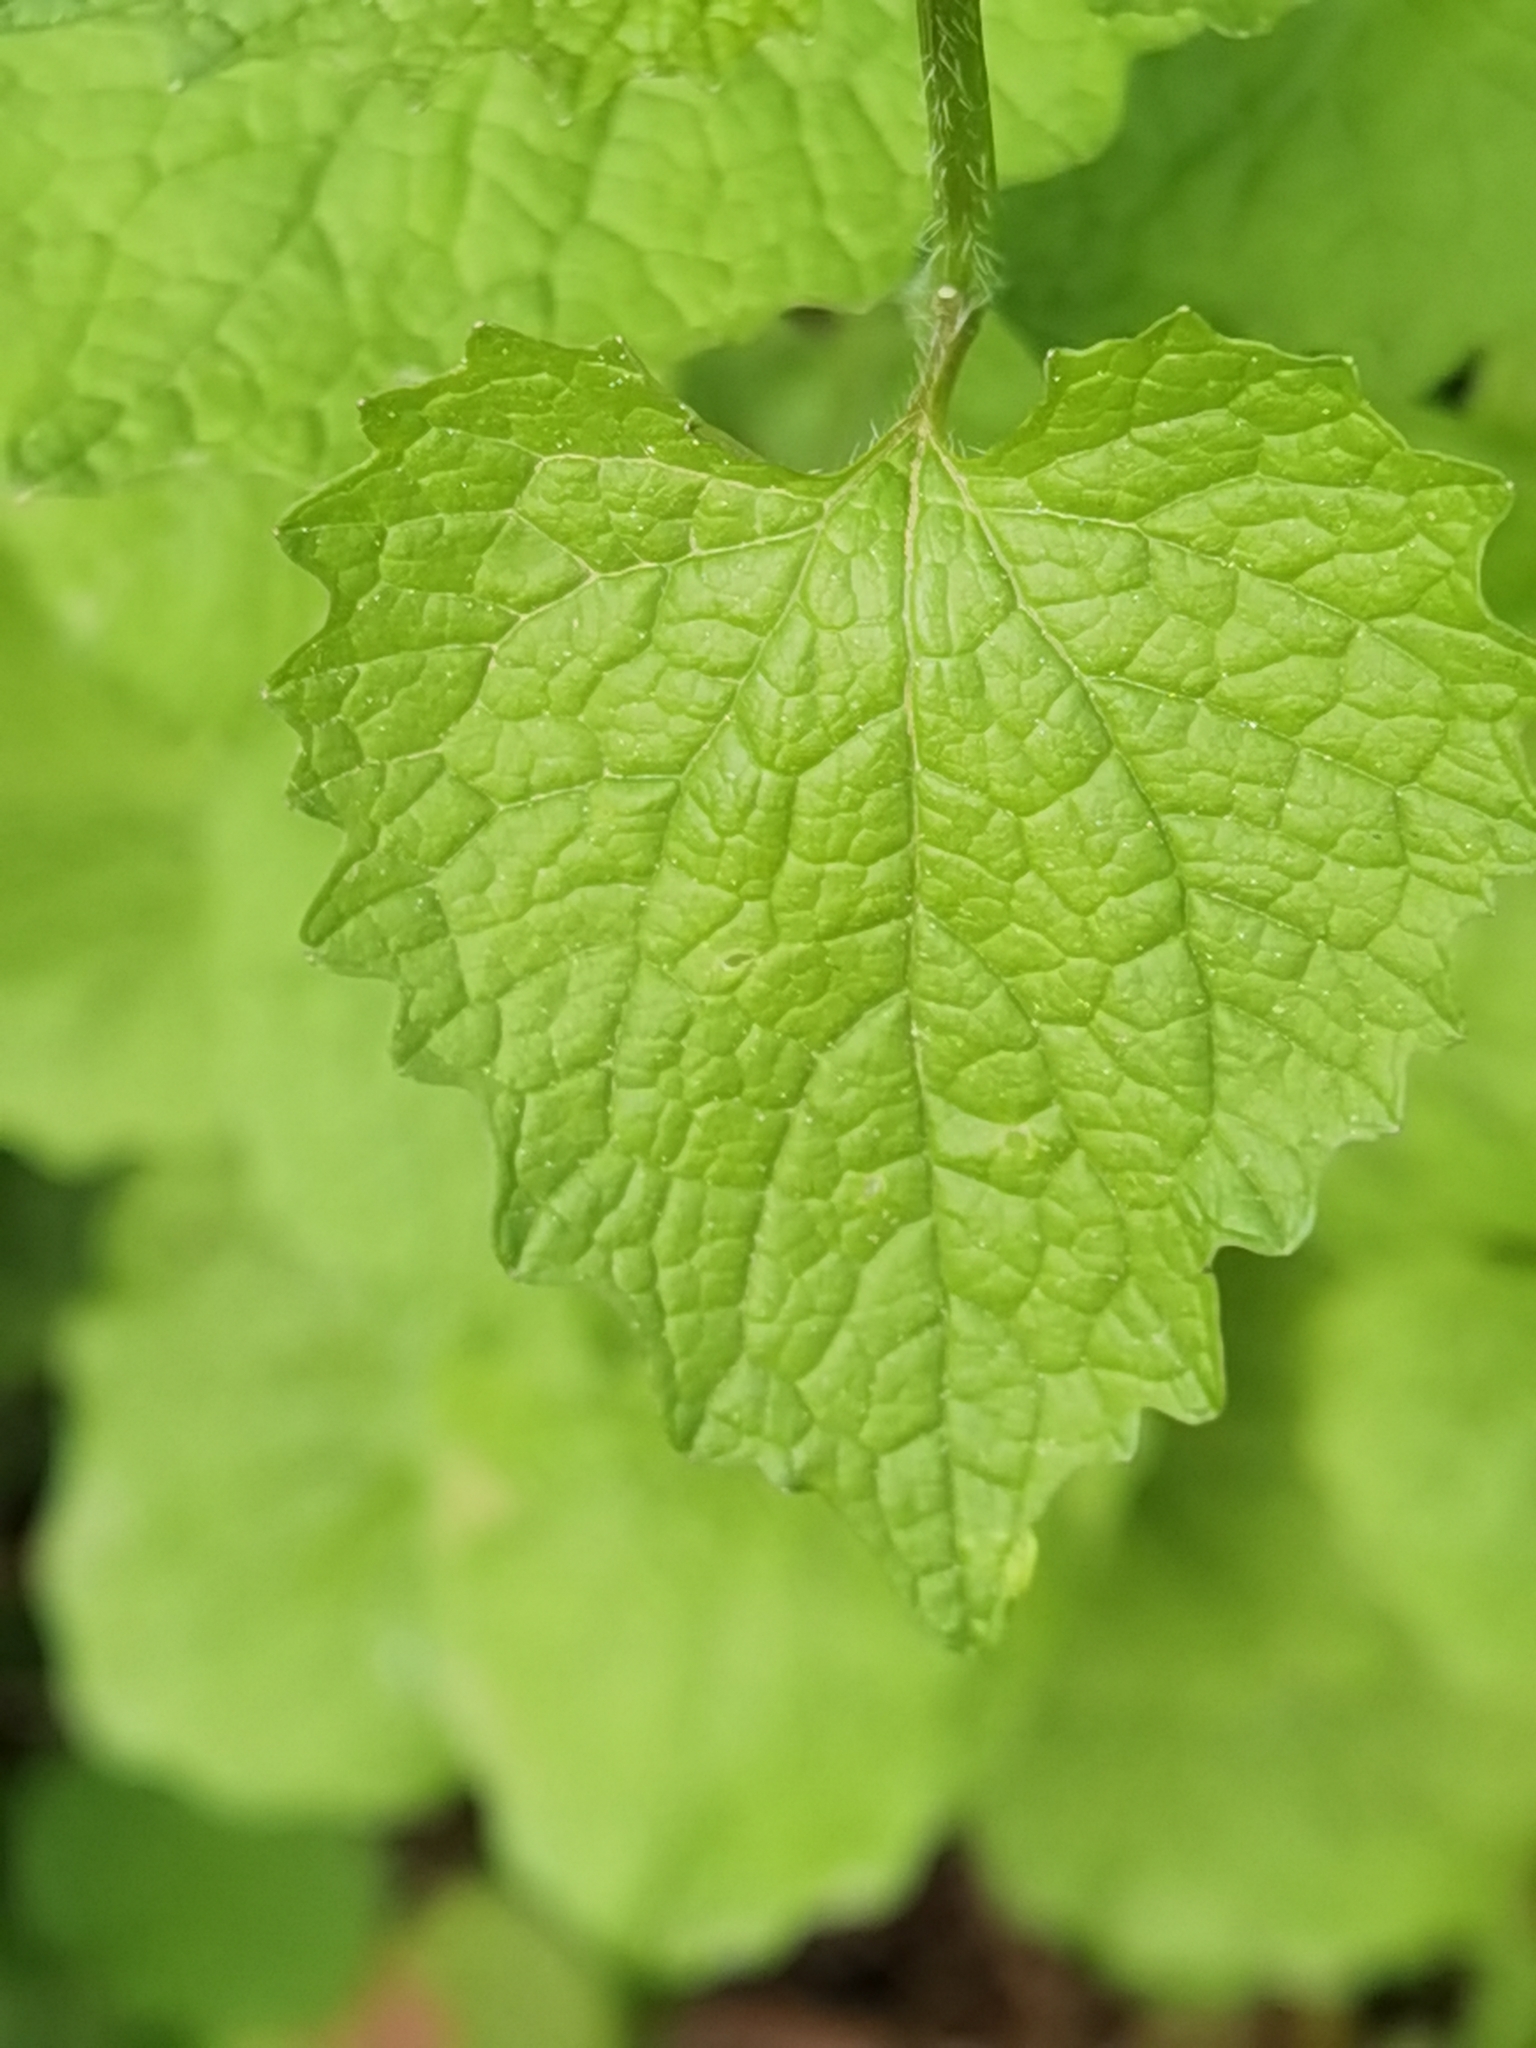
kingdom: Plantae
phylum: Tracheophyta
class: Magnoliopsida
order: Brassicales
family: Brassicaceae
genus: Alliaria
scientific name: Alliaria petiolata
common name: Garlic mustard
